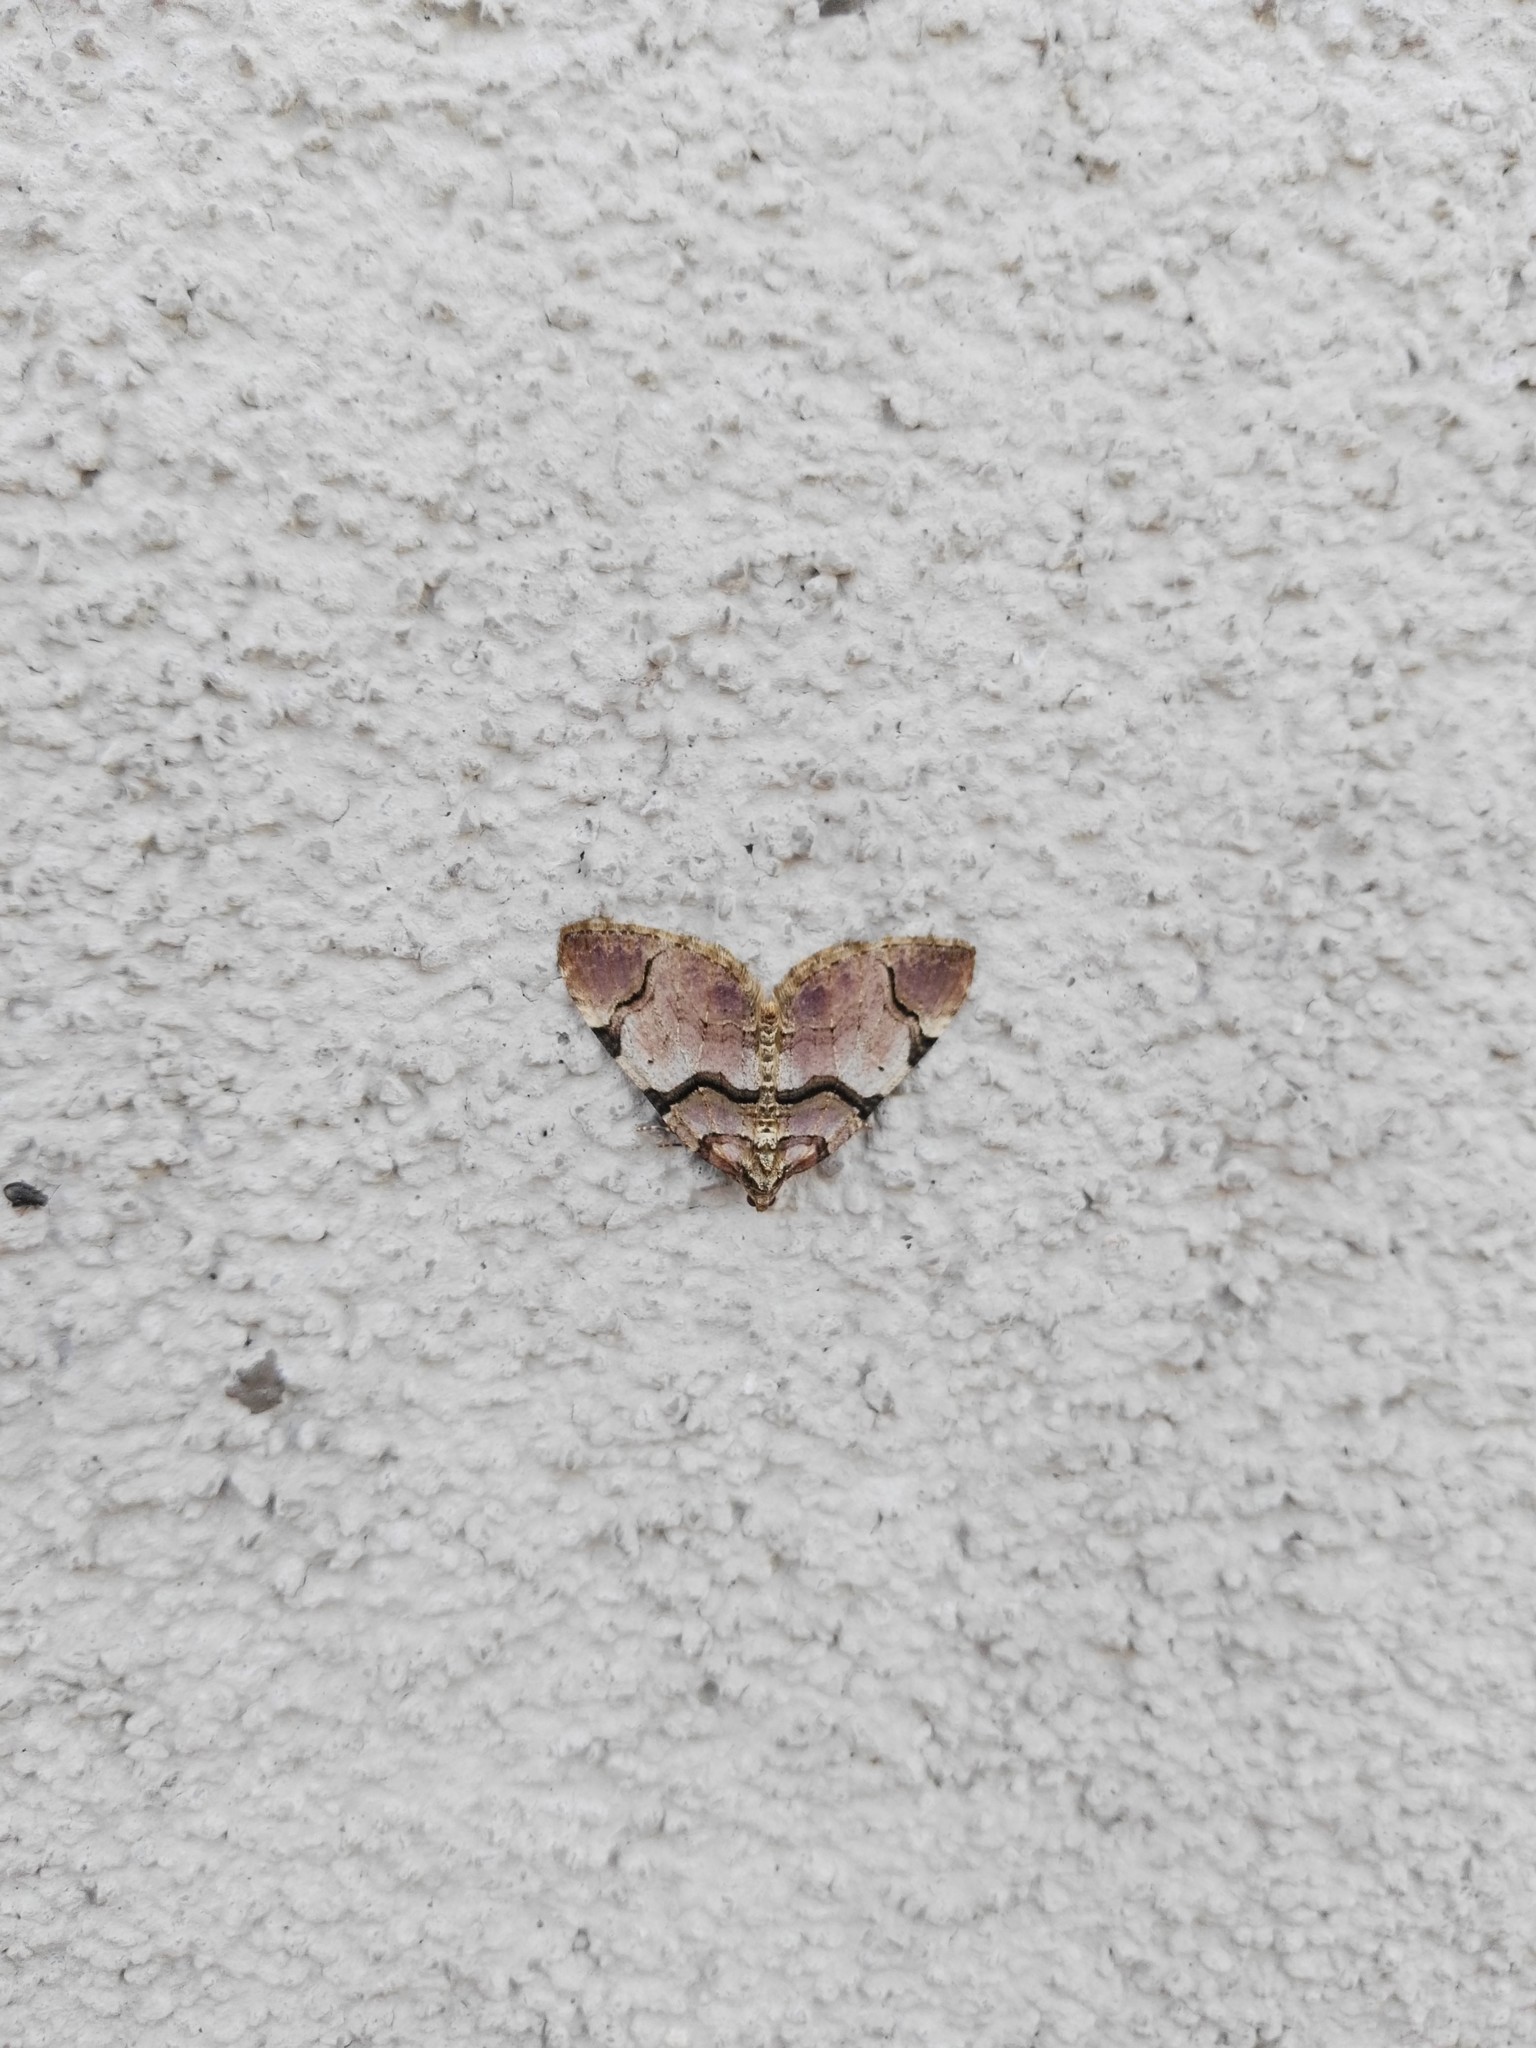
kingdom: Animalia
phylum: Arthropoda
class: Insecta
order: Lepidoptera
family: Geometridae
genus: Anticlea
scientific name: Anticlea derivata
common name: Streamer
